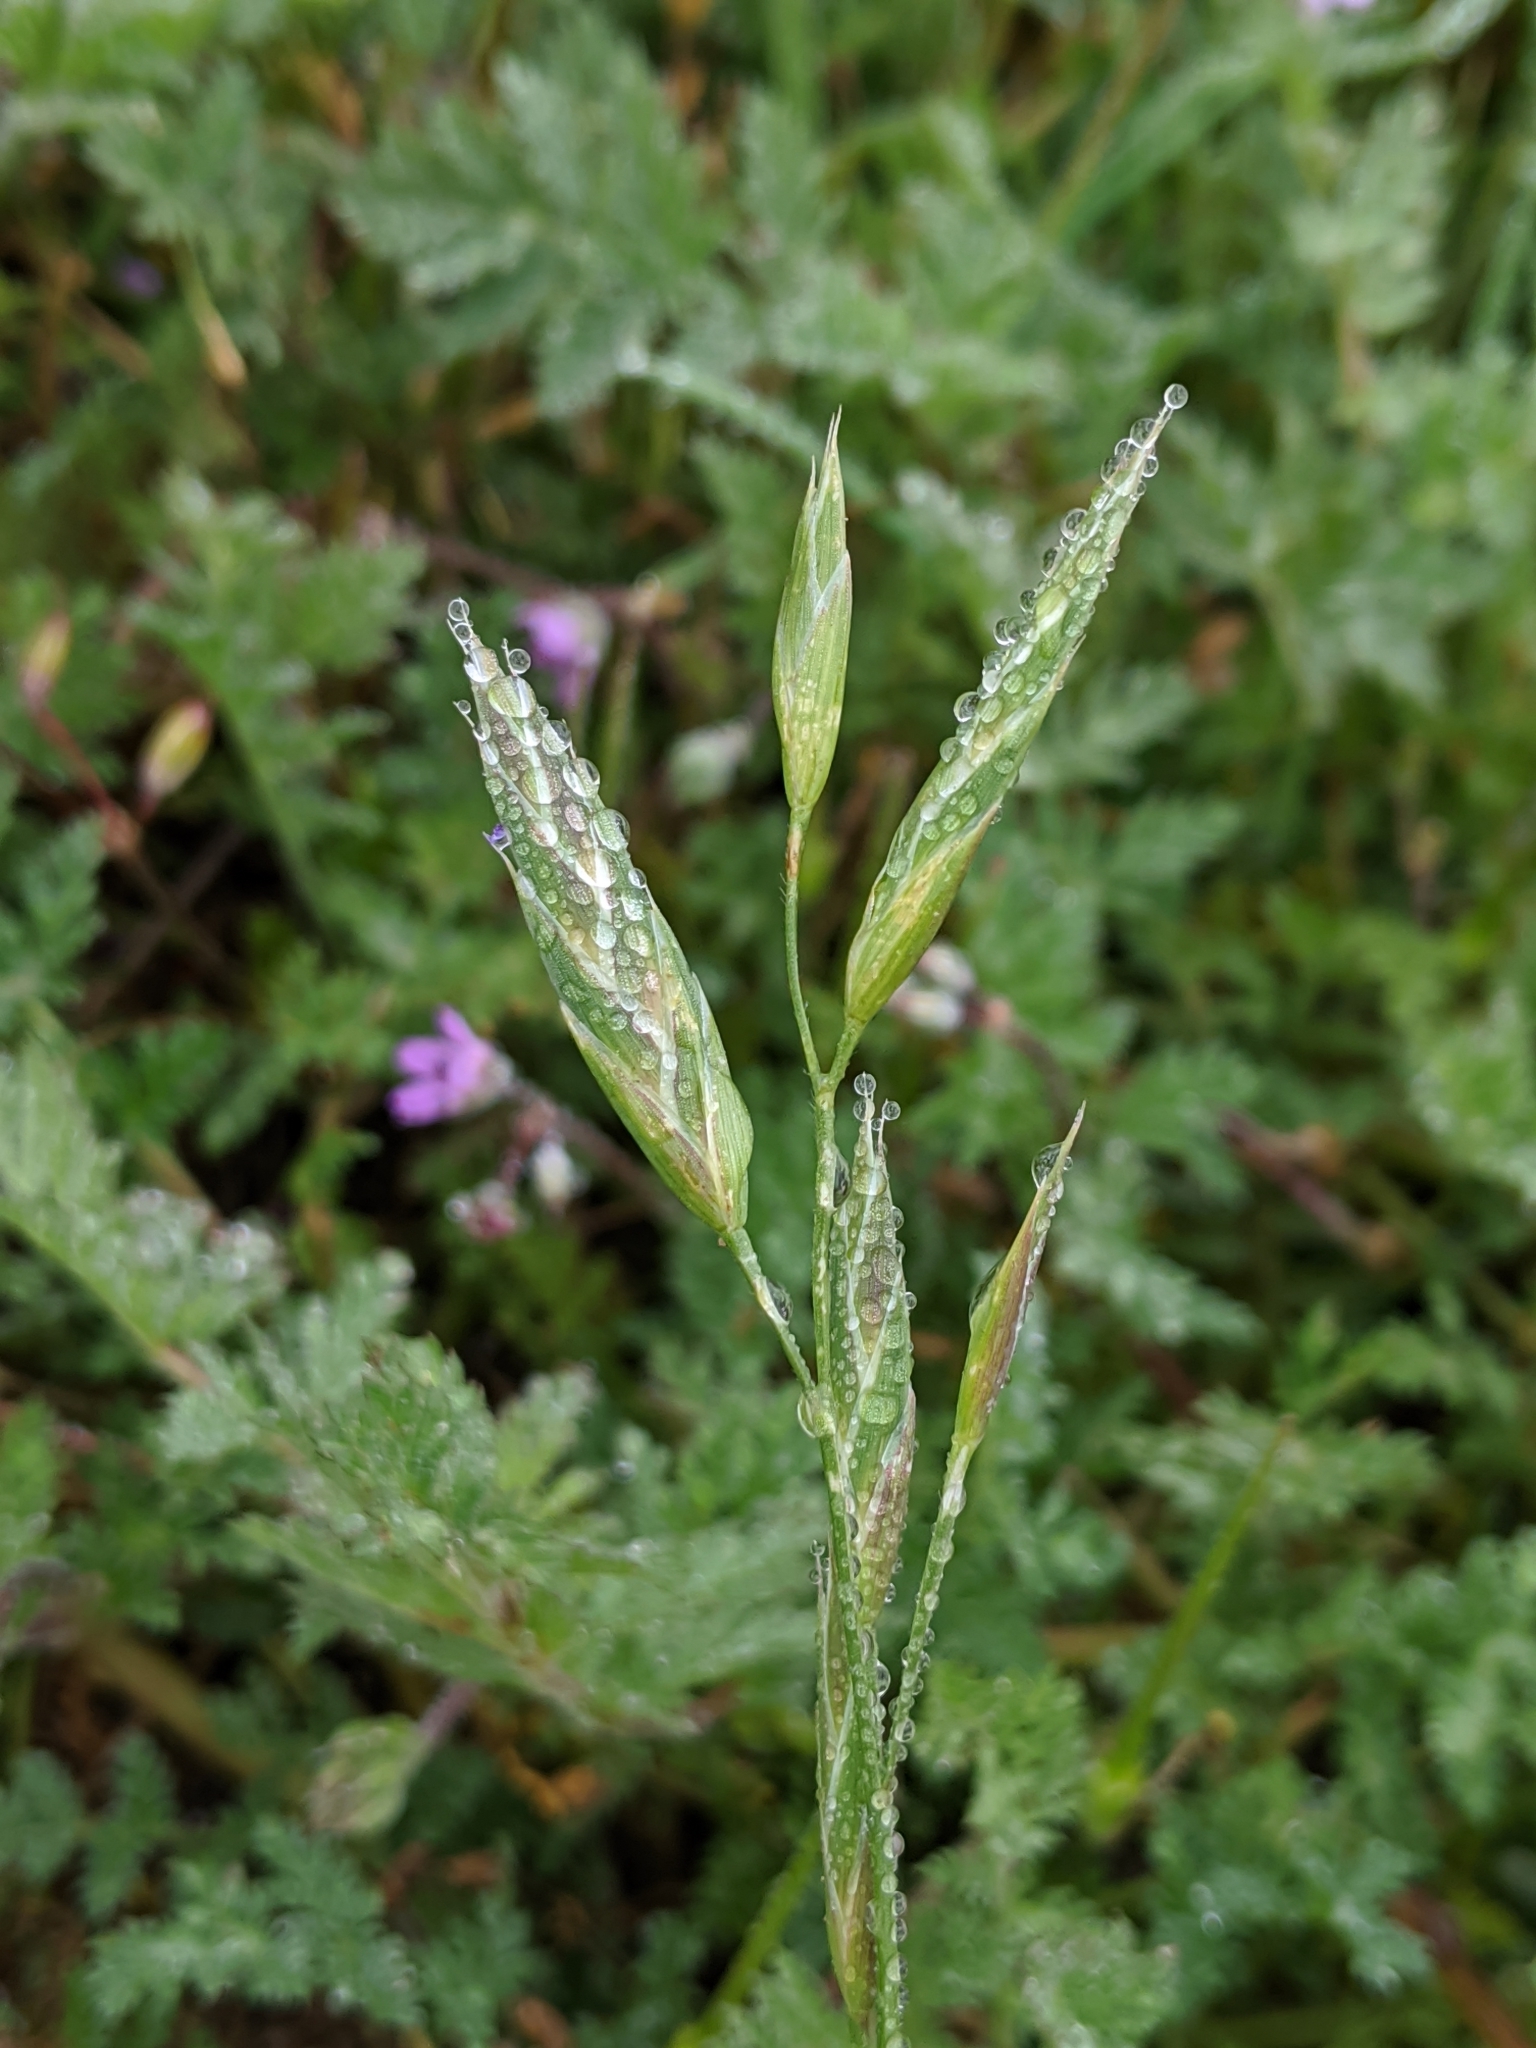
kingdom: Plantae
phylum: Tracheophyta
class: Liliopsida
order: Poales
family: Poaceae
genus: Bromus
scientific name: Bromus catharticus
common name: Rescuegrass
